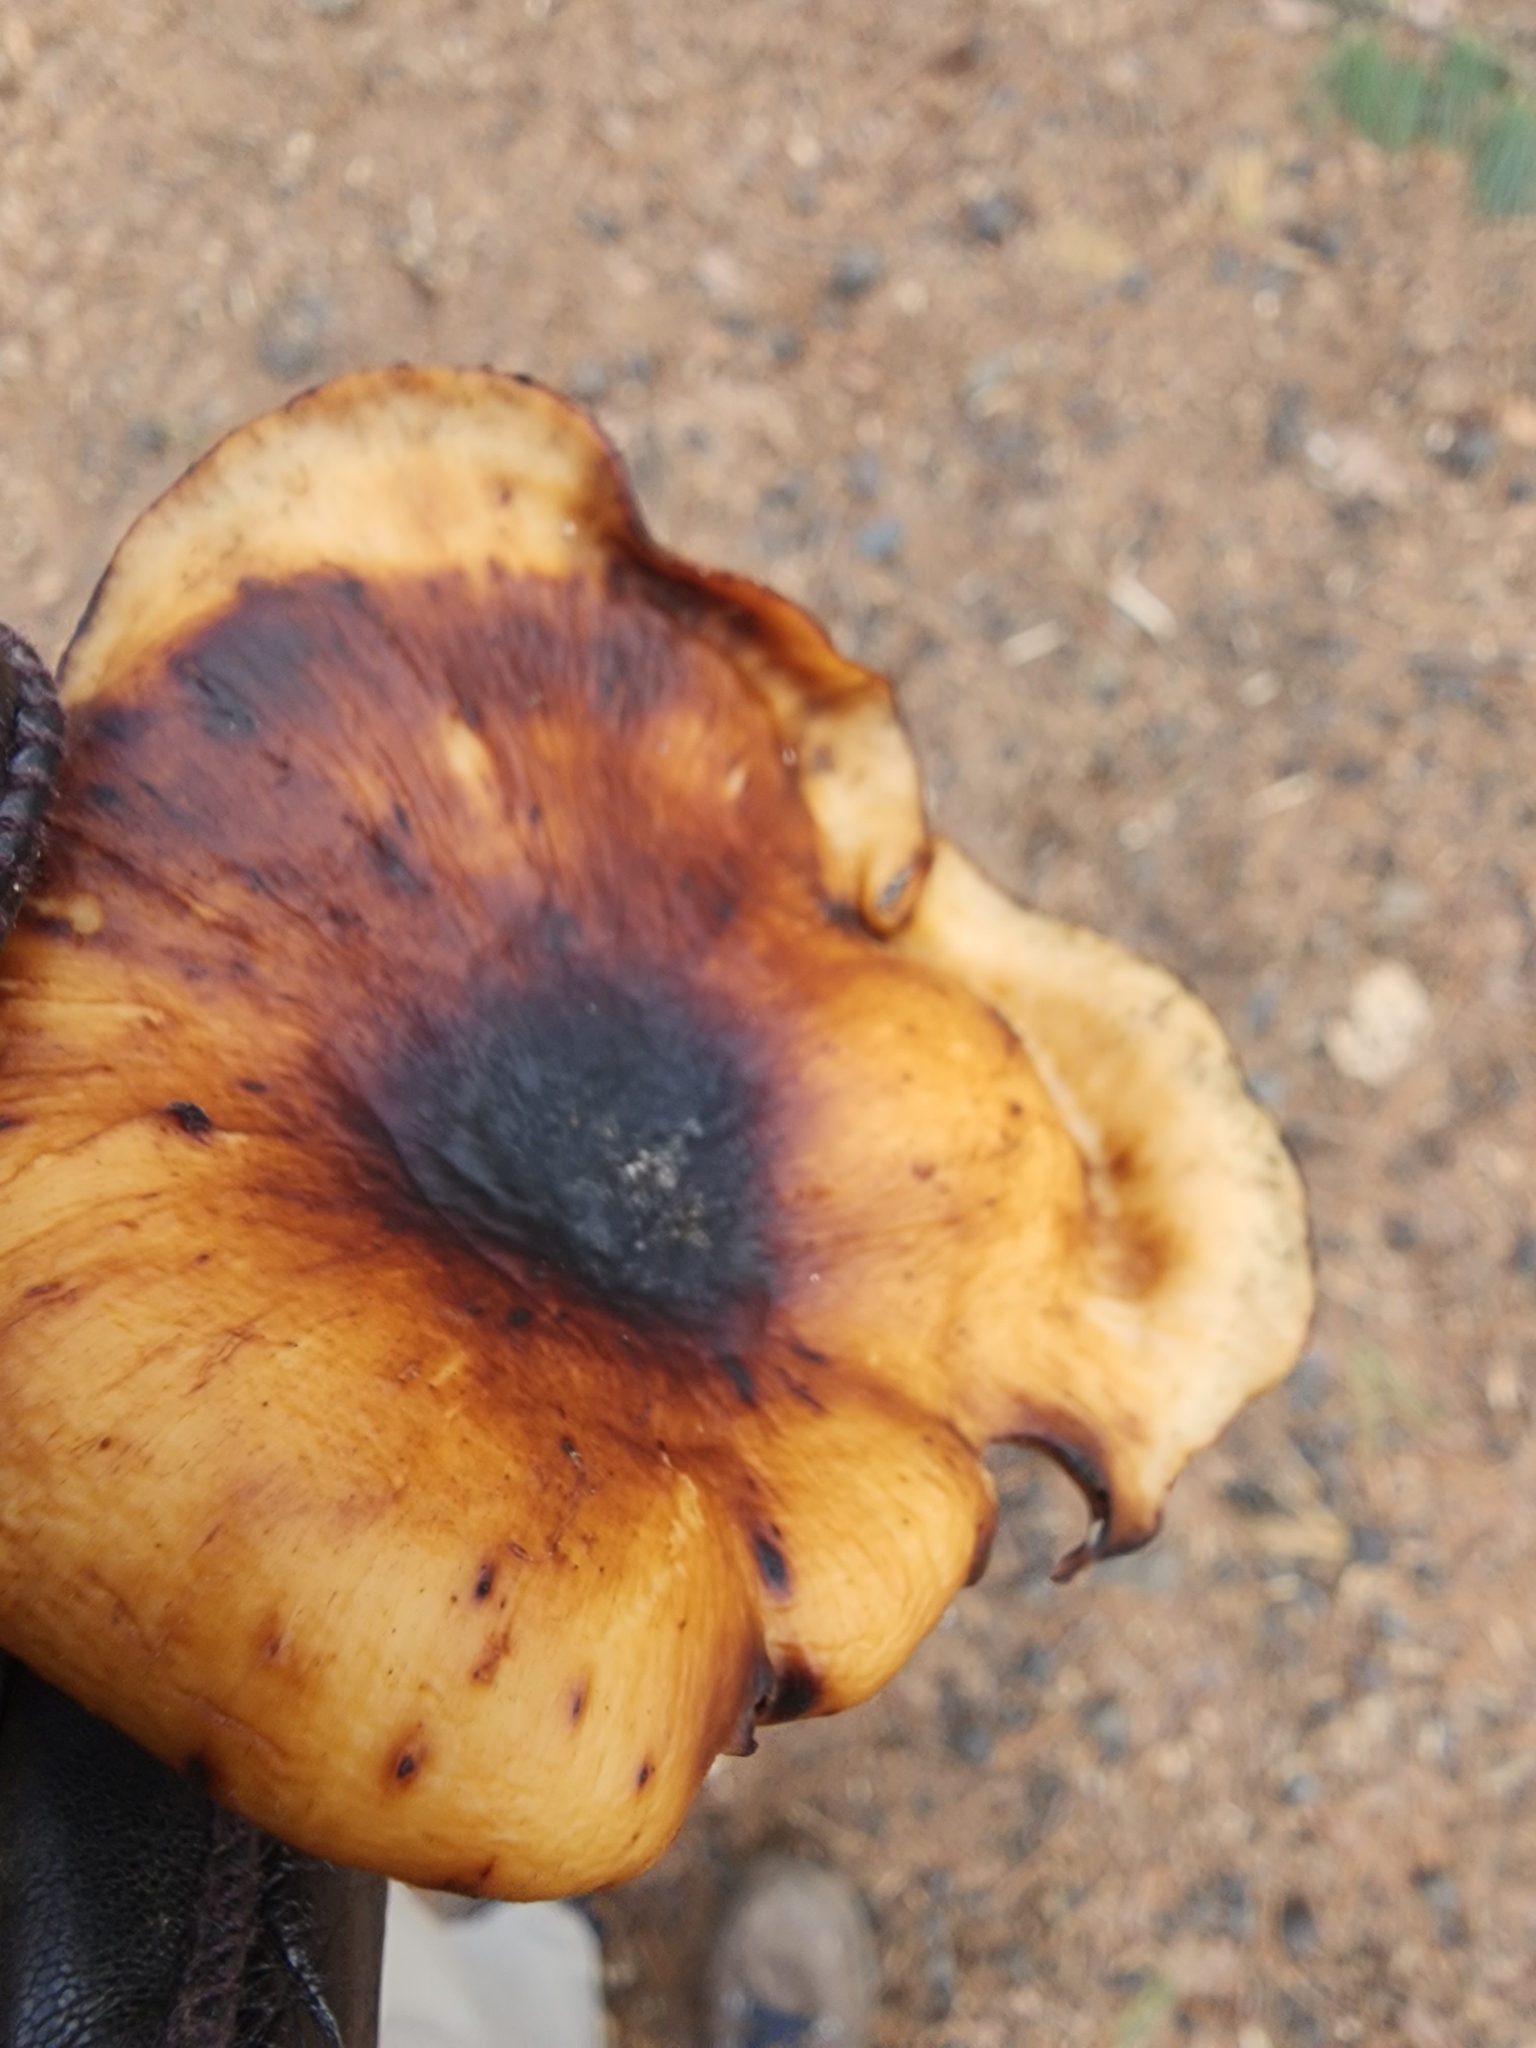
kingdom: Fungi
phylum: Basidiomycota
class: Agaricomycetes
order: Polyporales
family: Polyporaceae
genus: Cerioporus
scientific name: Cerioporus leptocephalus
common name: Blackfoot polypore
